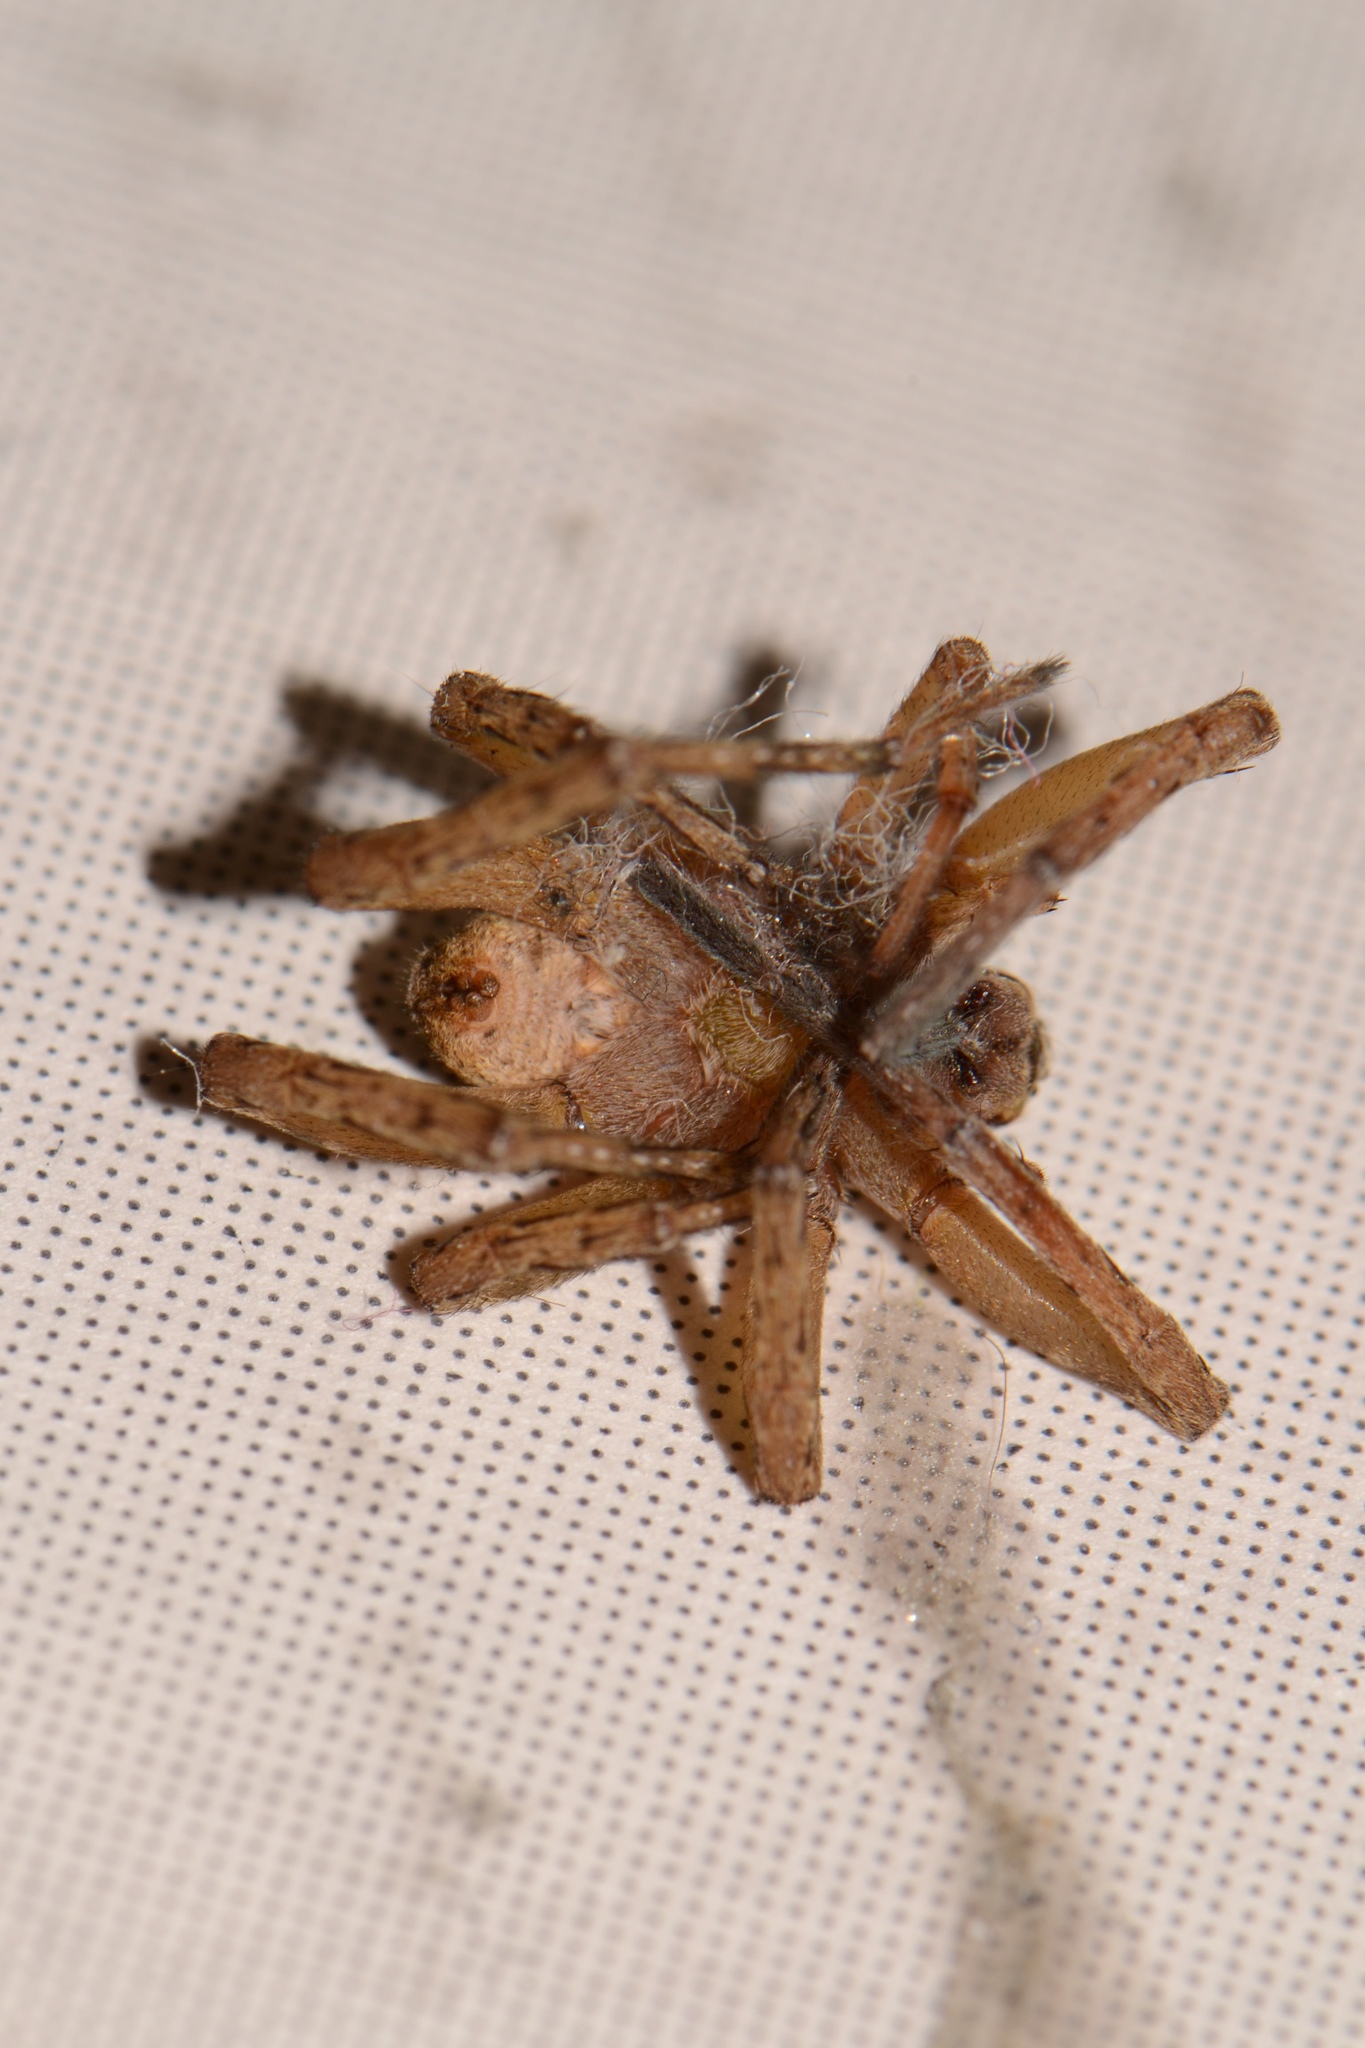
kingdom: Animalia
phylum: Arthropoda
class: Arachnida
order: Araneae
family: Lycosidae
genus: Tigrosa
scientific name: Tigrosa annexa
